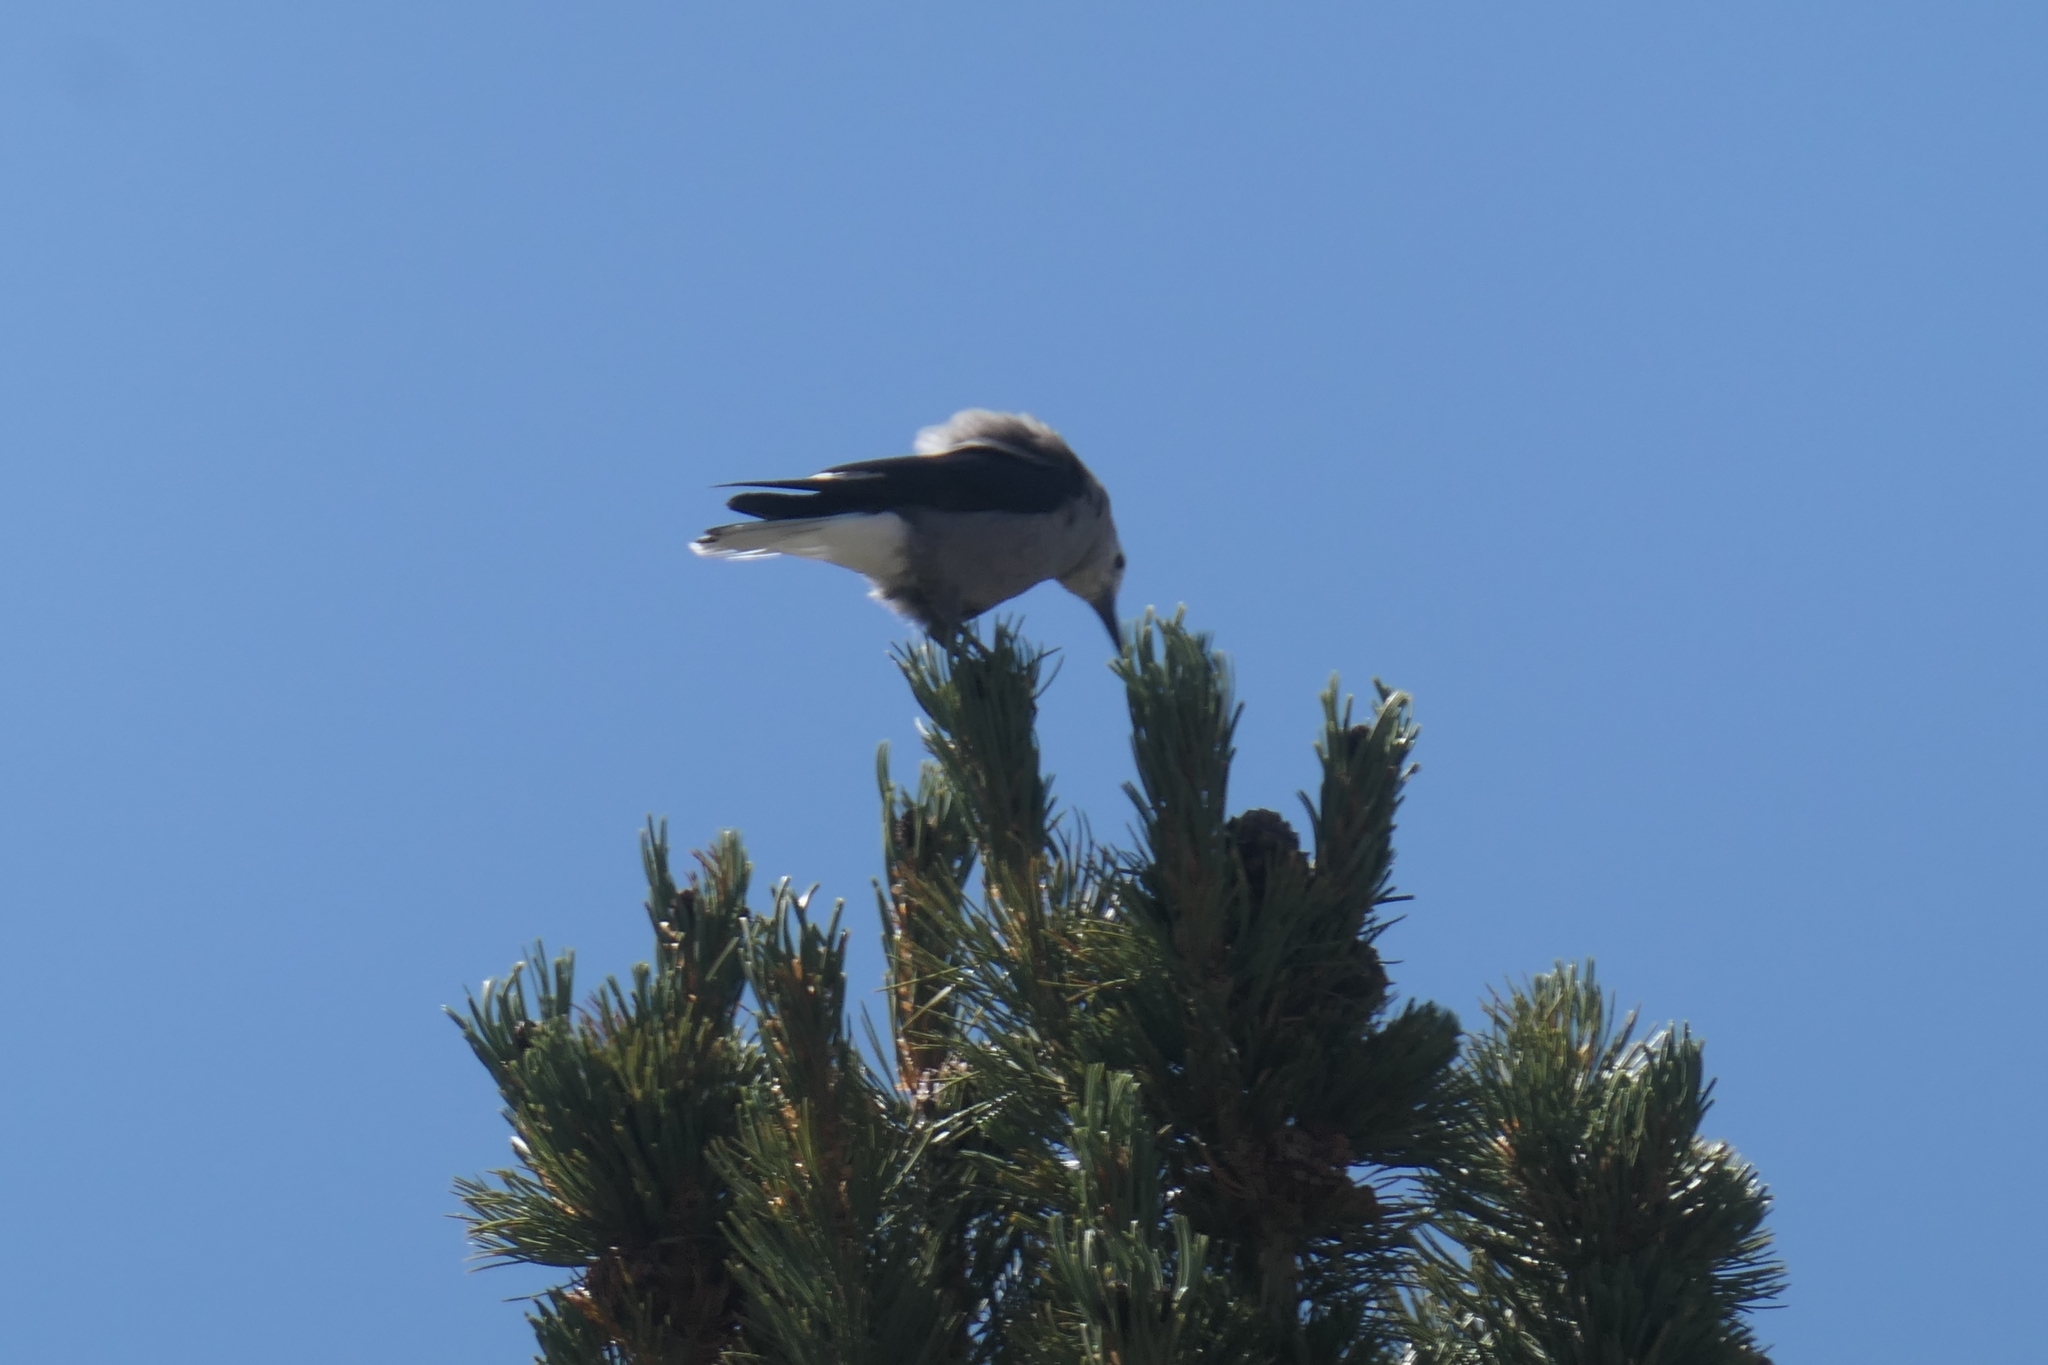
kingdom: Animalia
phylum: Chordata
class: Aves
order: Passeriformes
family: Corvidae
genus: Nucifraga
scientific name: Nucifraga columbiana
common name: Clark's nutcracker
